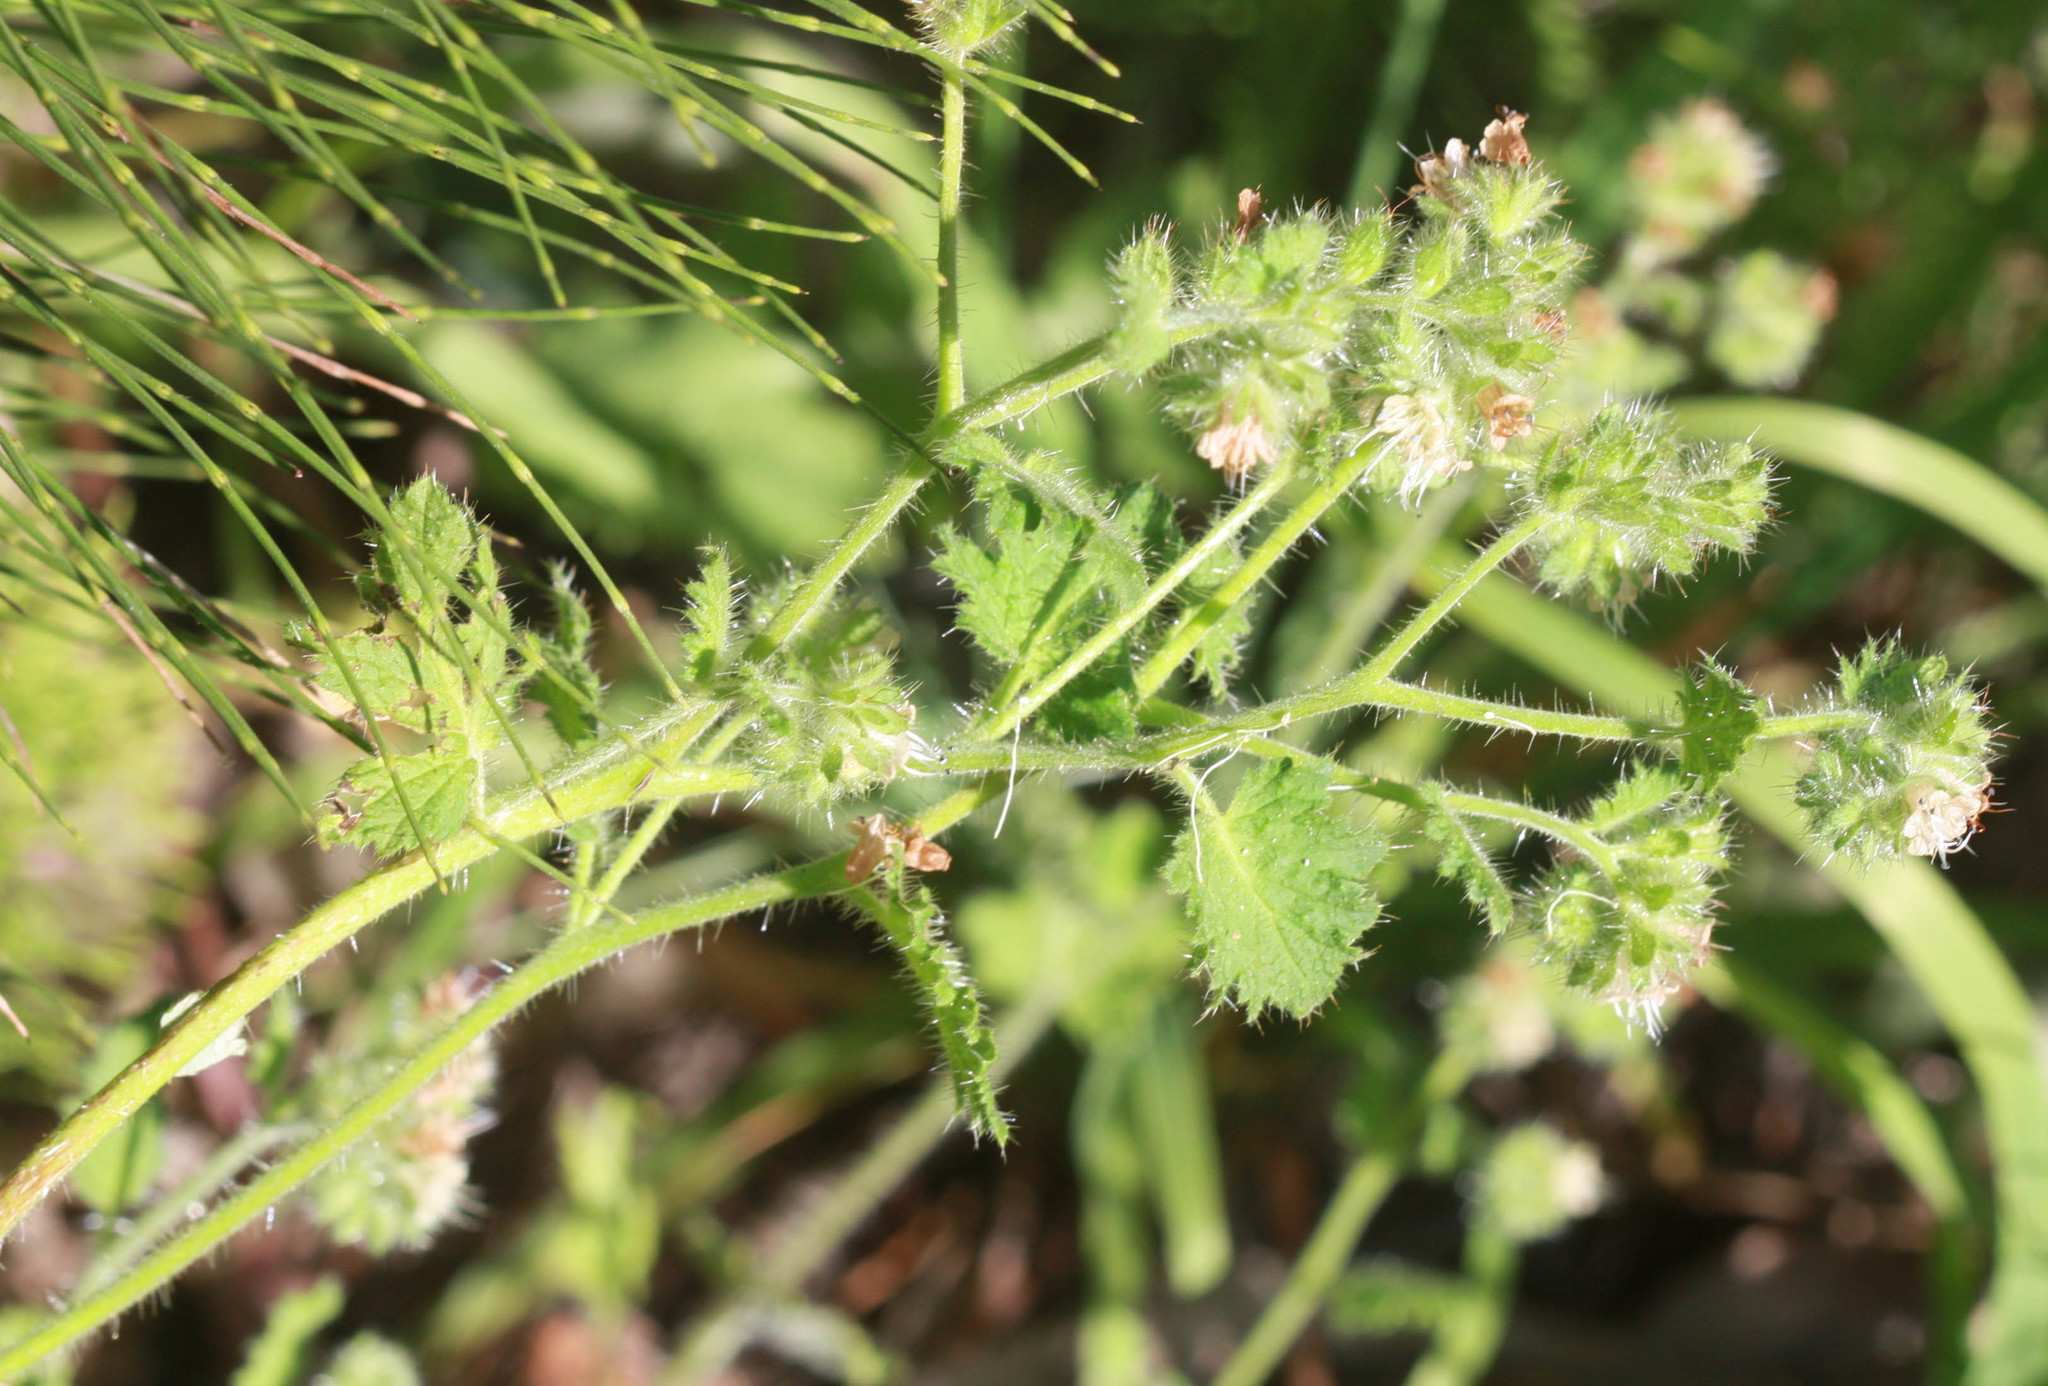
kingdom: Plantae
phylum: Tracheophyta
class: Magnoliopsida
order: Boraginales
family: Hydrophyllaceae
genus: Phacelia
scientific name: Phacelia malvifolia
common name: Mallow-leaf phacelia
